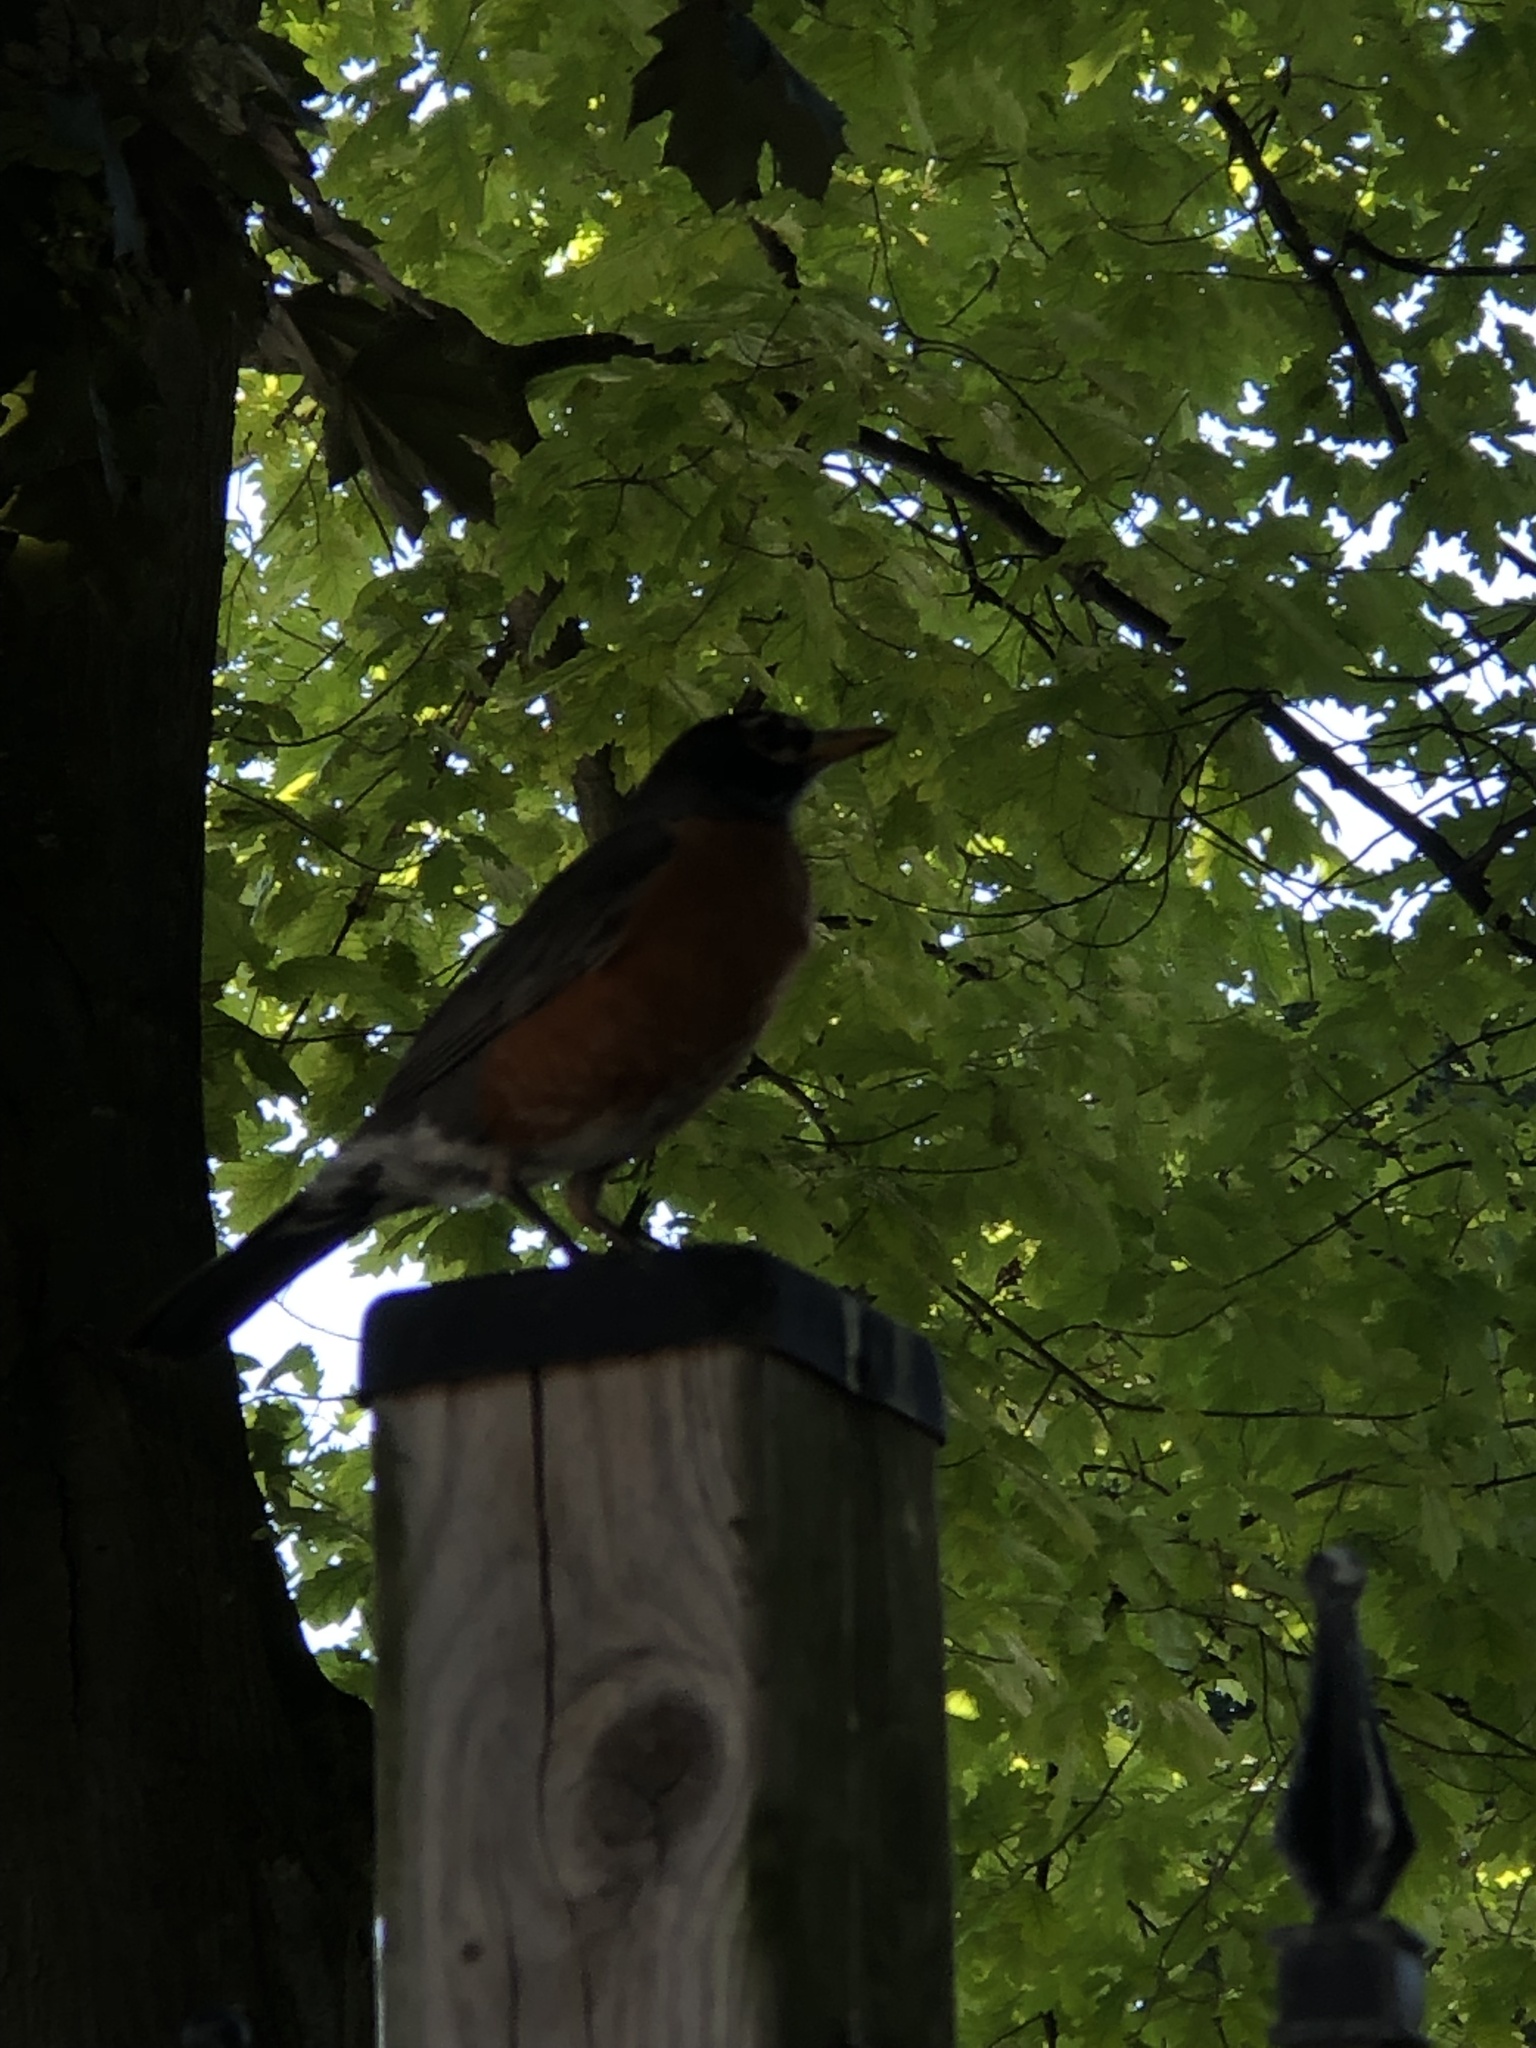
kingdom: Animalia
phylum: Chordata
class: Aves
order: Passeriformes
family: Turdidae
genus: Turdus
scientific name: Turdus migratorius
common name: American robin
